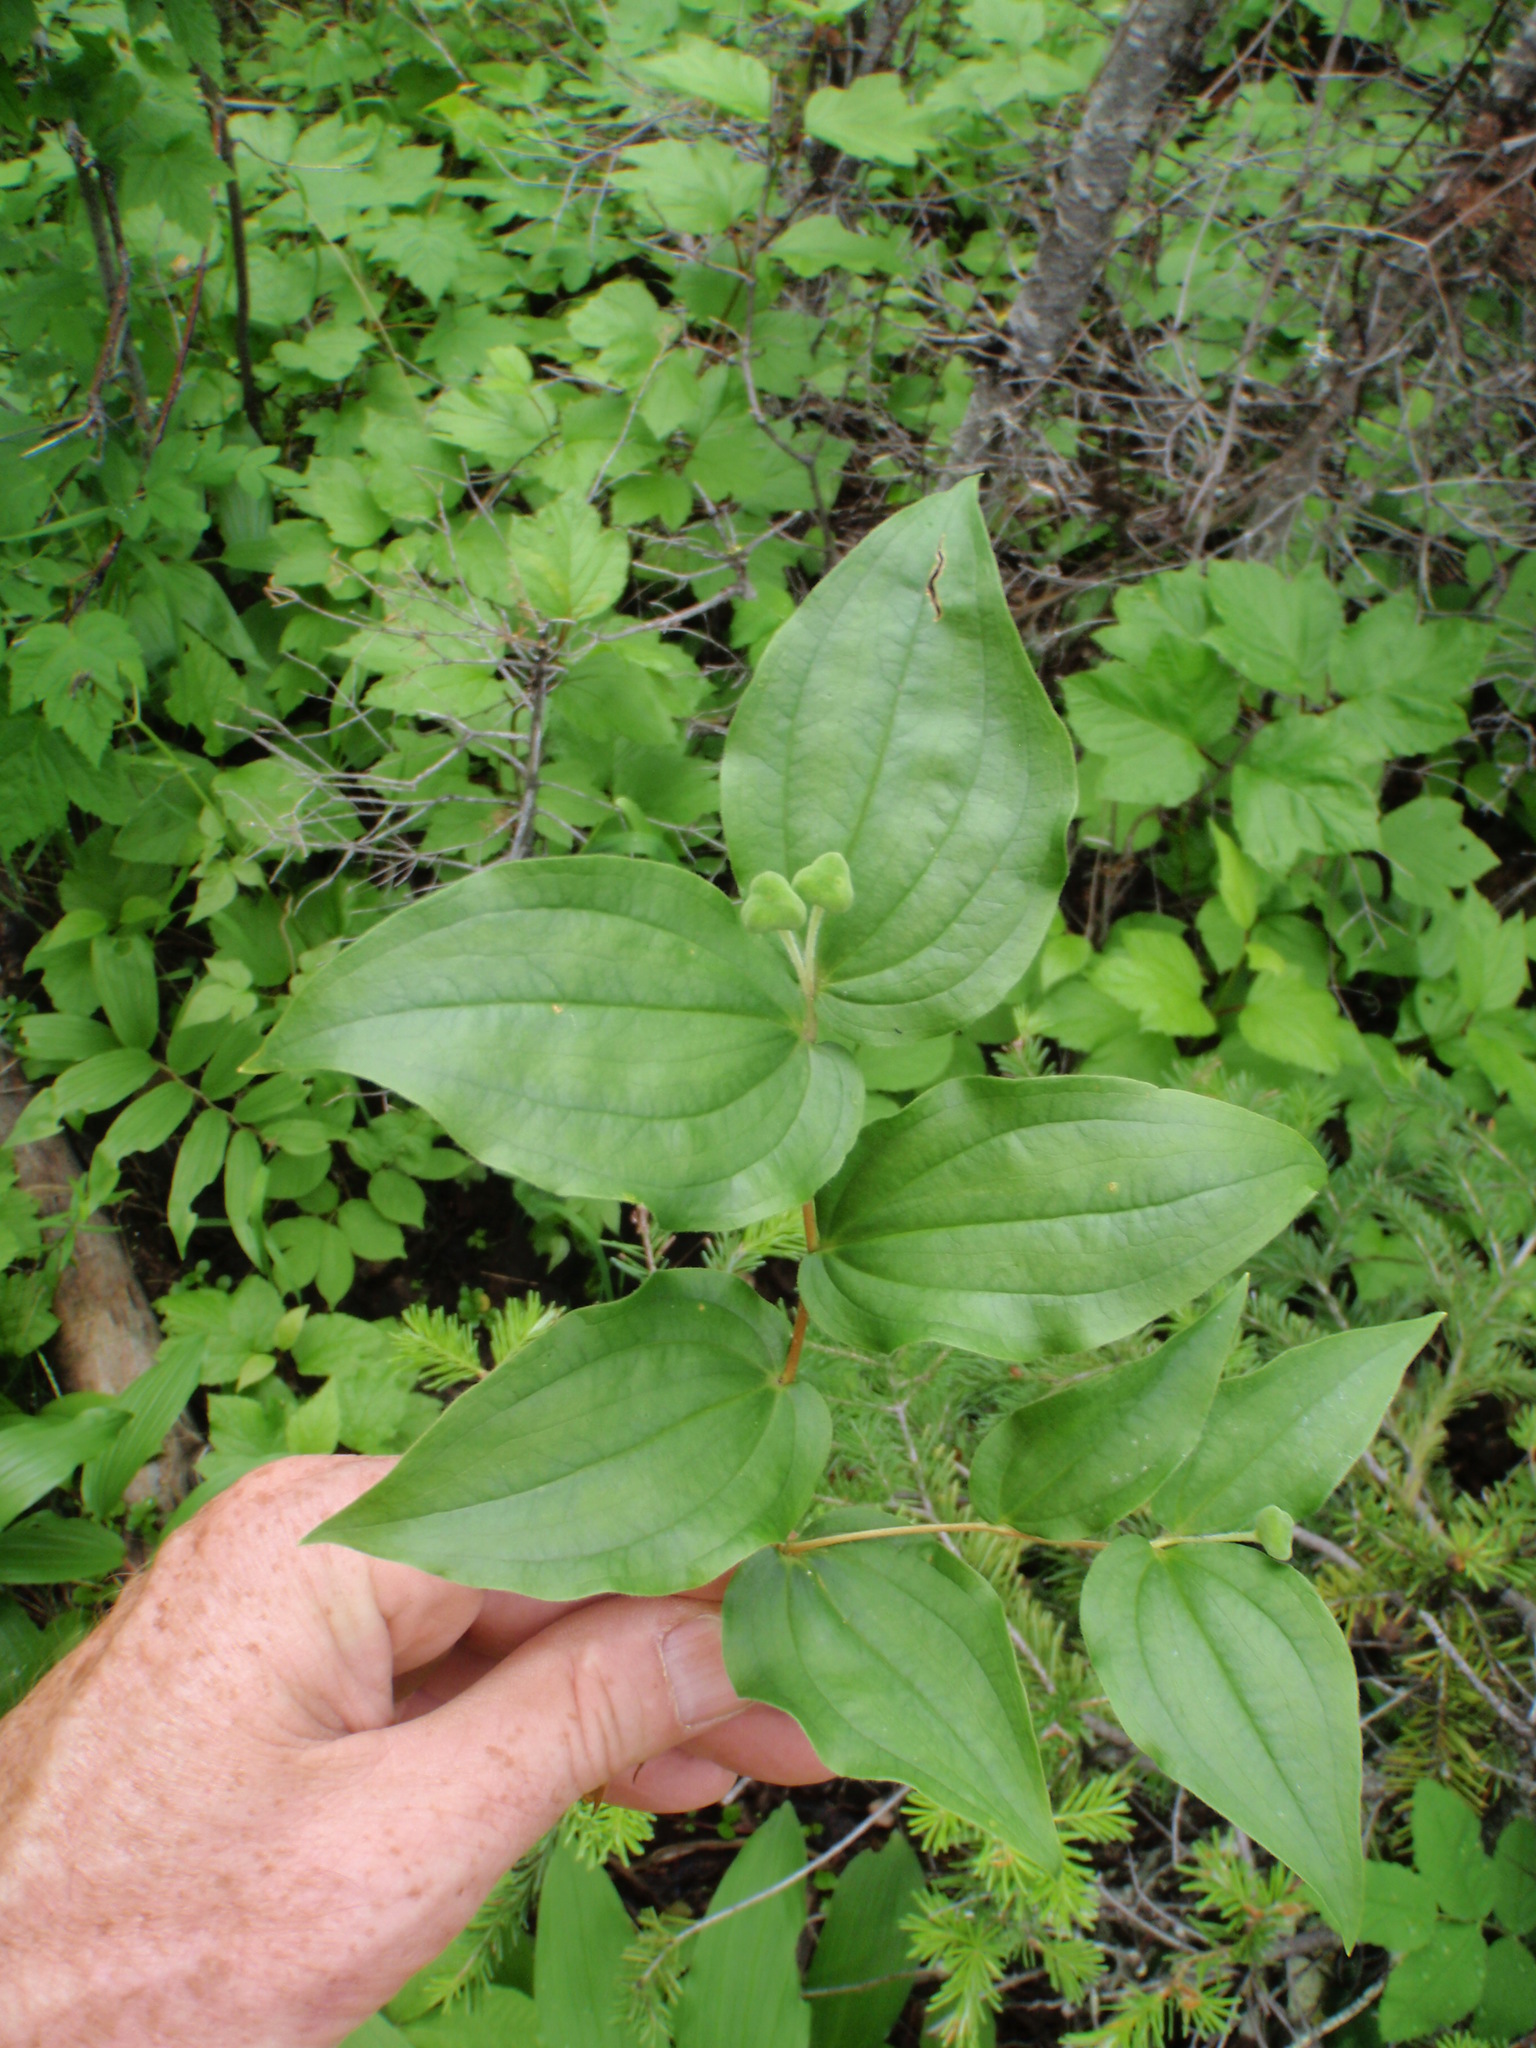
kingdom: Plantae
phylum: Tracheophyta
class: Liliopsida
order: Liliales
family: Liliaceae
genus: Prosartes
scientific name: Prosartes trachycarpa
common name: Rough-fruit fairy-bells
